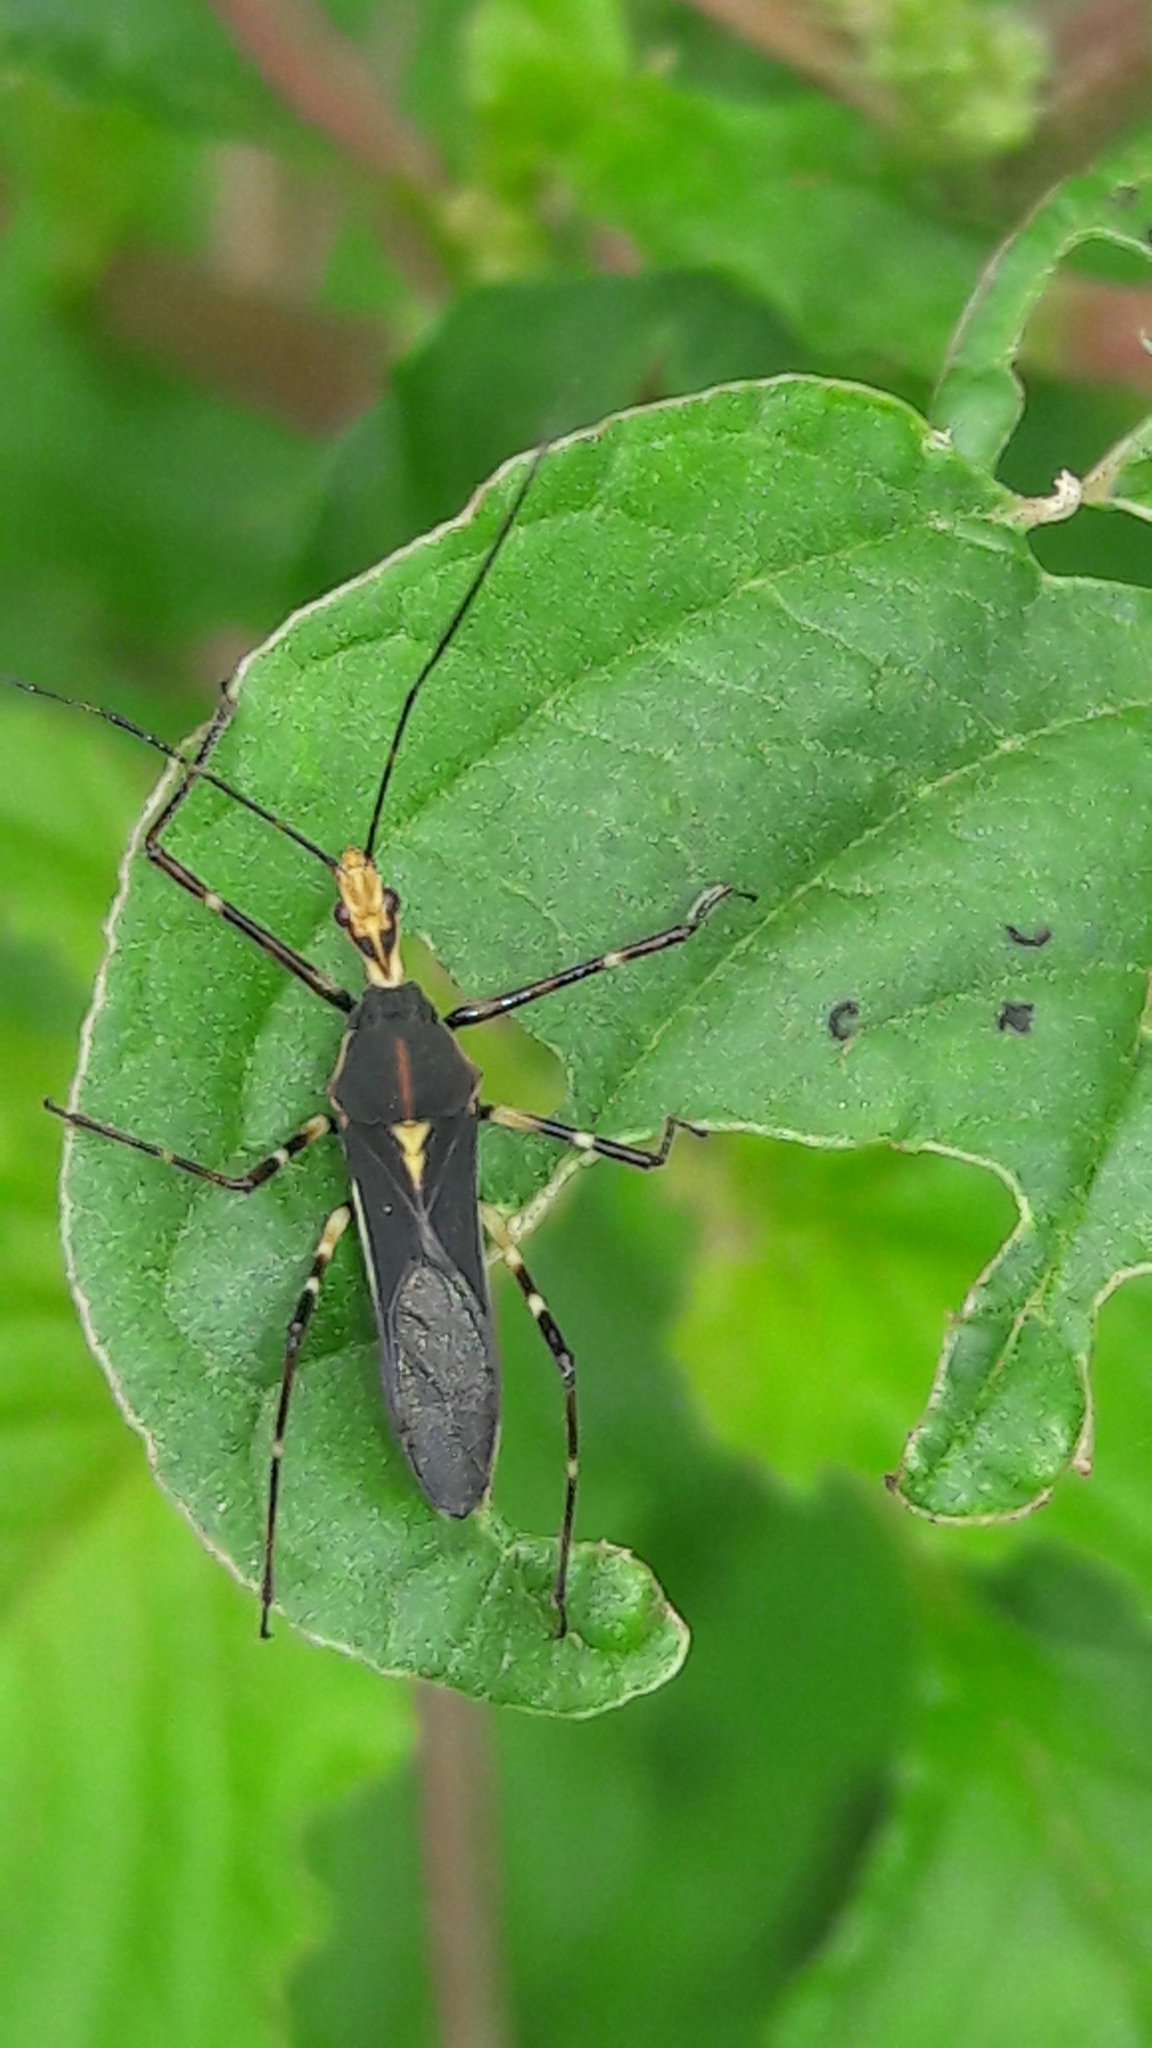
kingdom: Animalia
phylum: Arthropoda
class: Insecta
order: Hemiptera
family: Reduviidae
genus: Zelus
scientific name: Zelus laticornis
